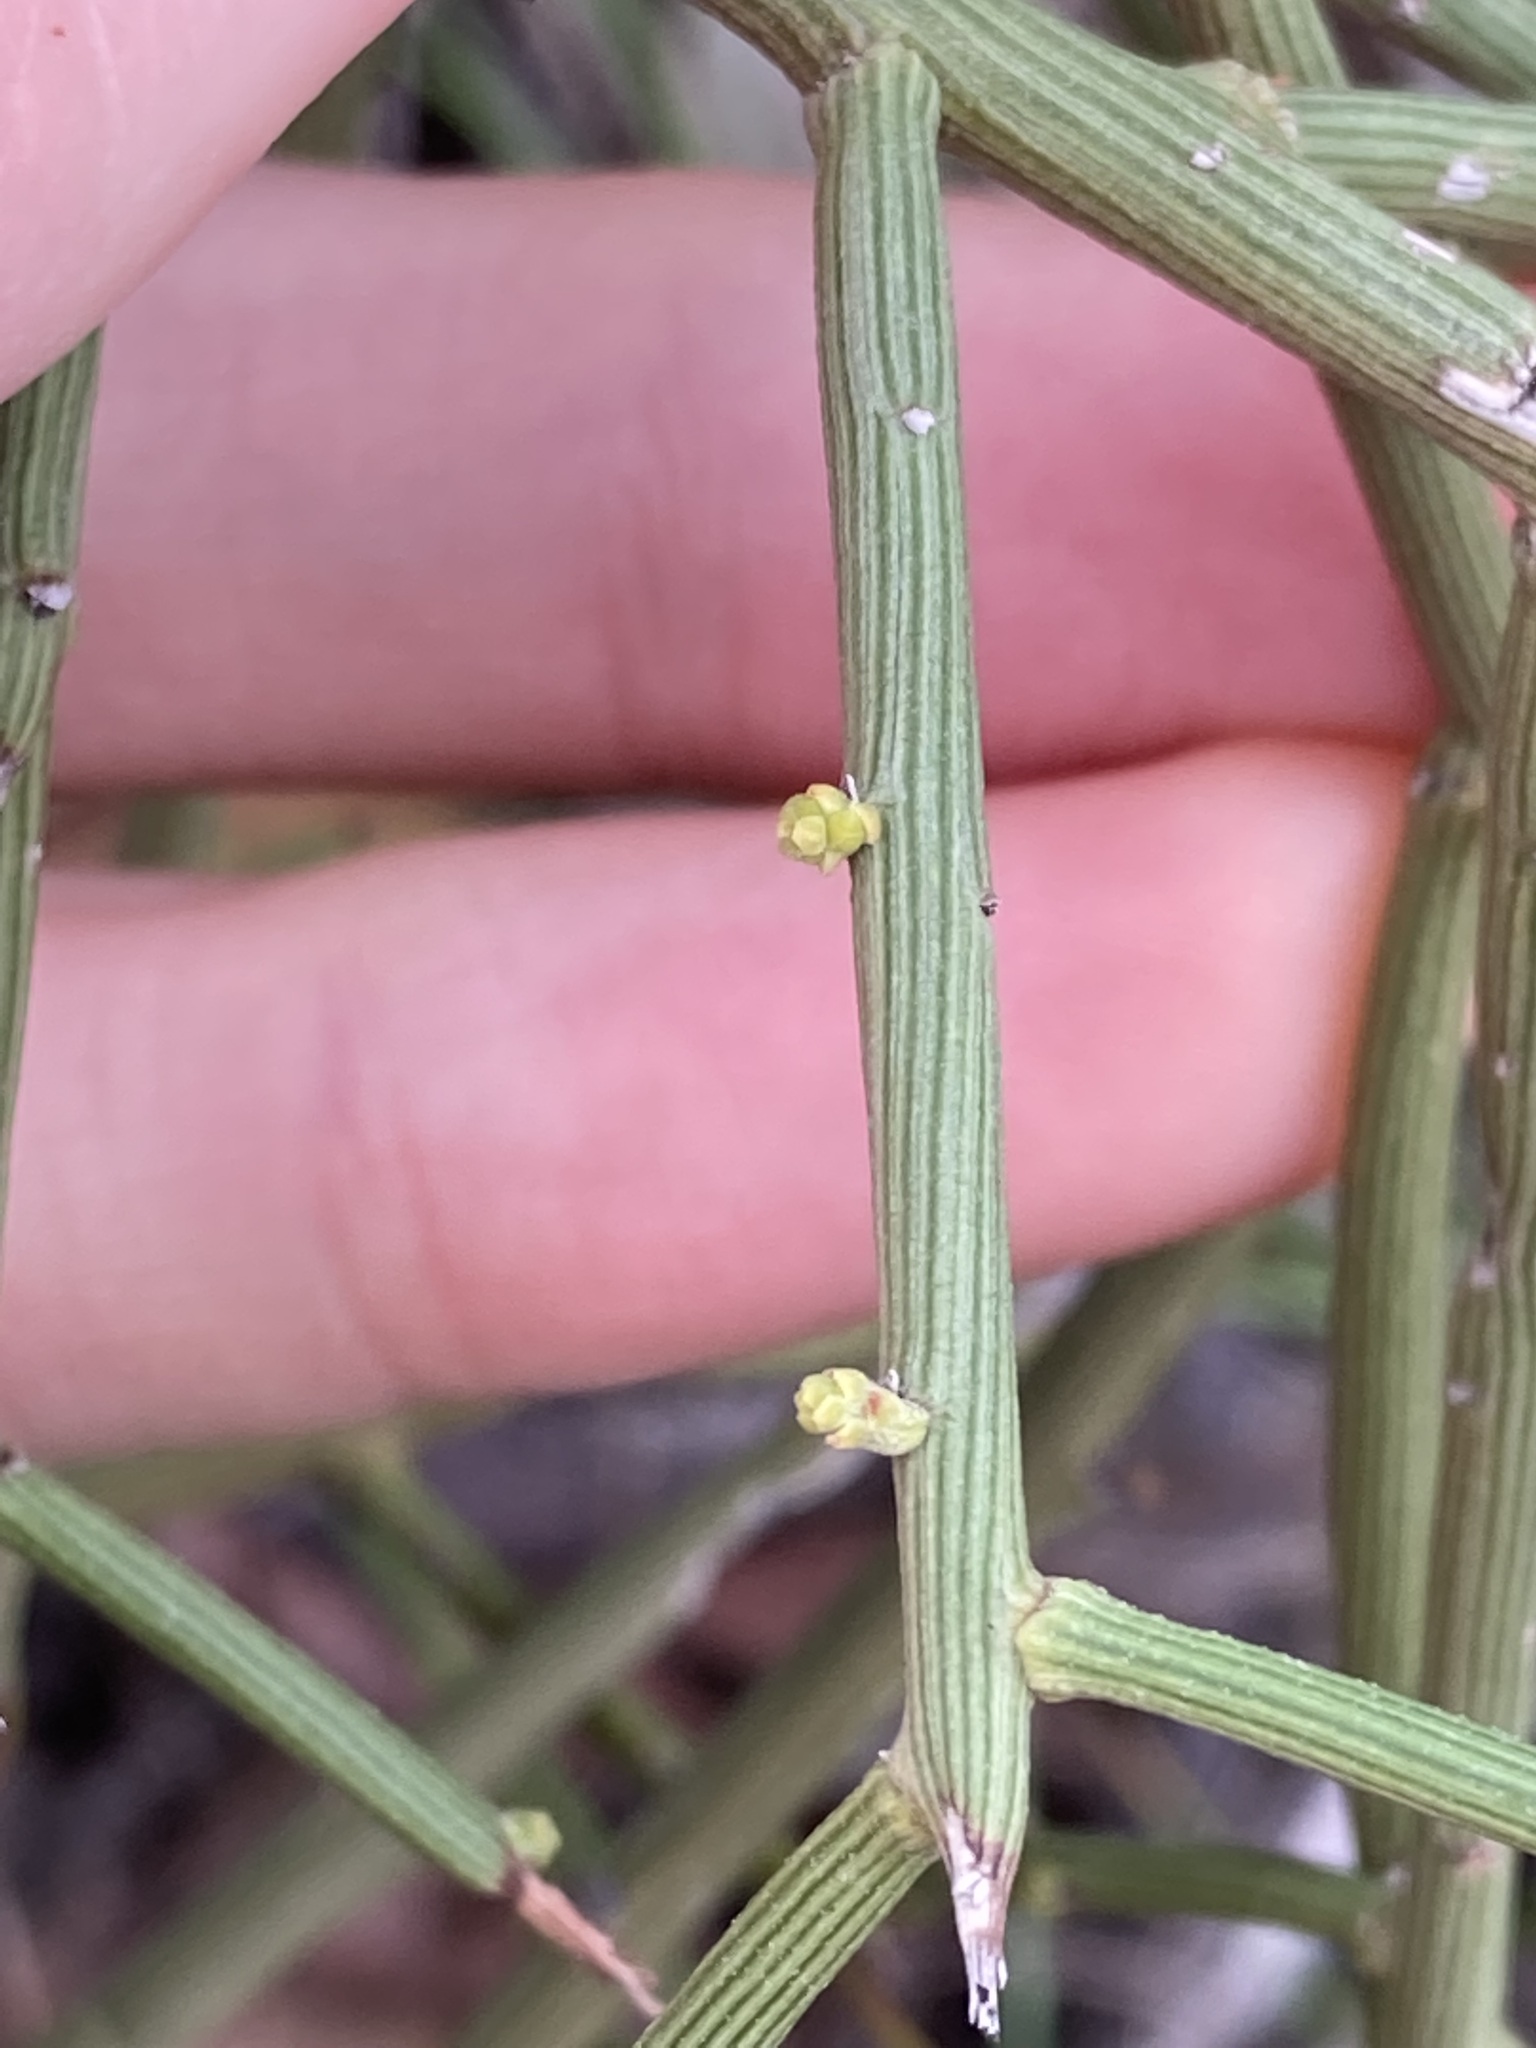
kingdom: Plantae
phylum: Tracheophyta
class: Magnoliopsida
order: Santalales
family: Santalaceae
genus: Exocarpos
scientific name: Exocarpos aphyllus
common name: Leafless ballart
